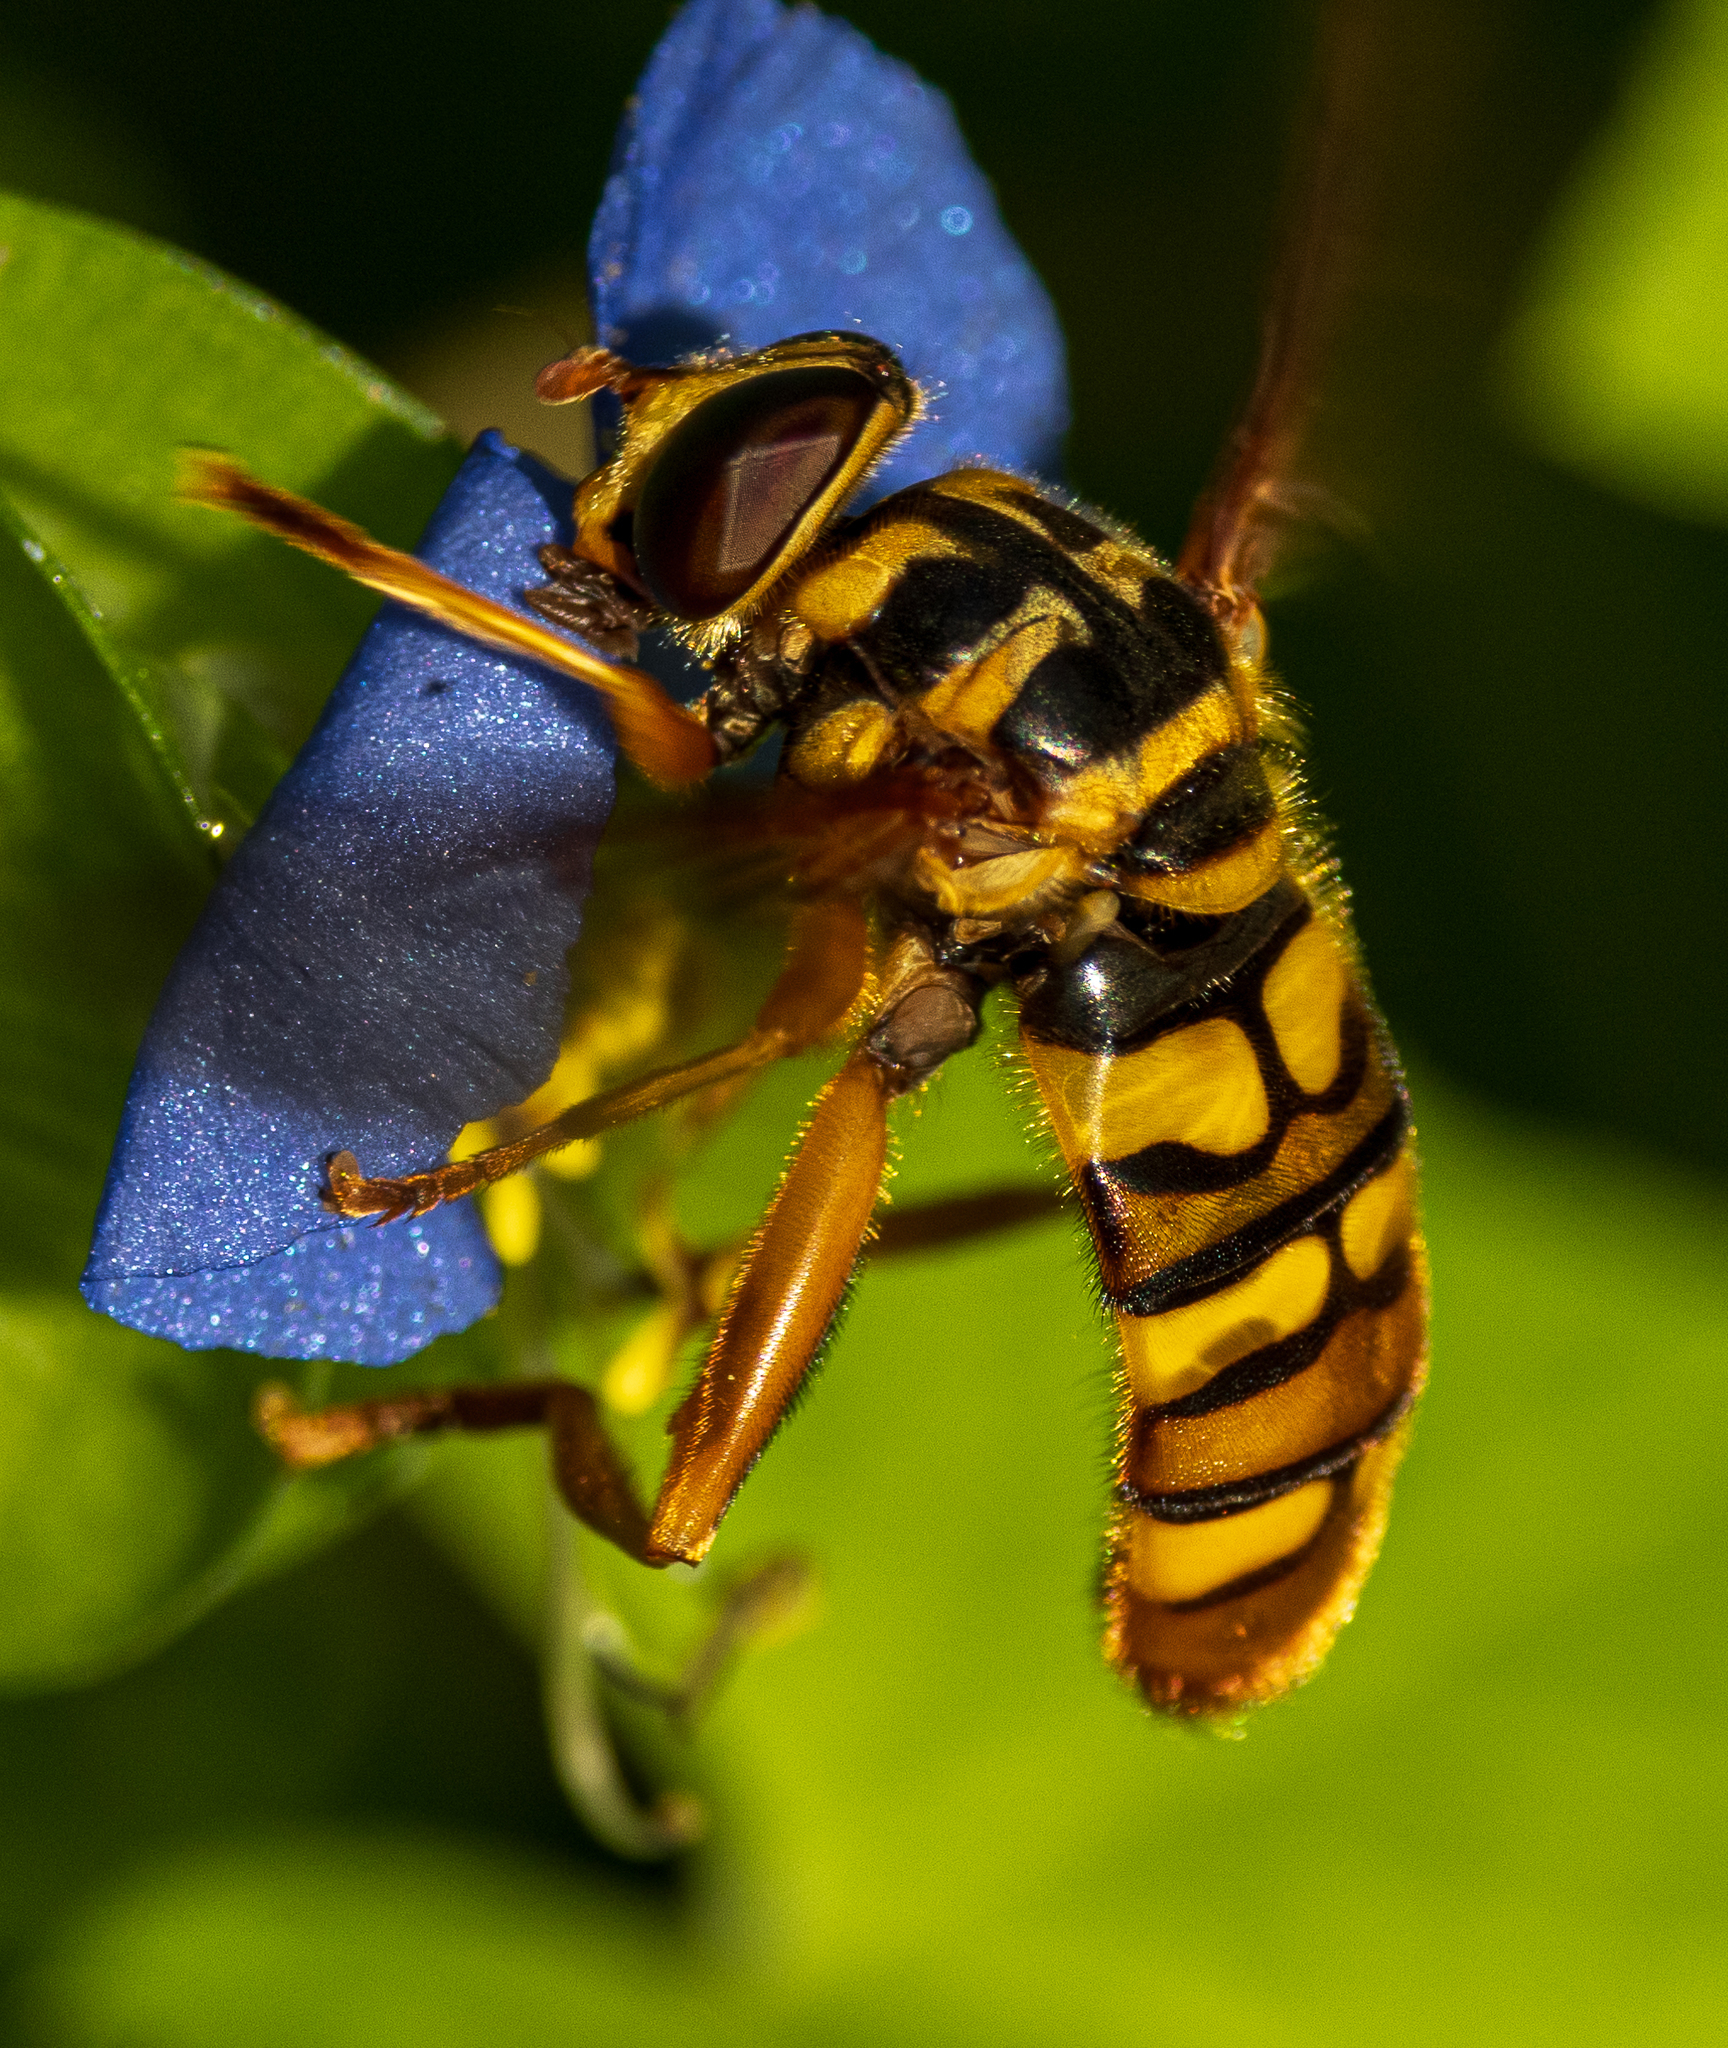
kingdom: Animalia
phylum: Arthropoda
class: Insecta
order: Diptera
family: Syrphidae
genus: Milesia
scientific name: Milesia virginiensis
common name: Virginia giant
